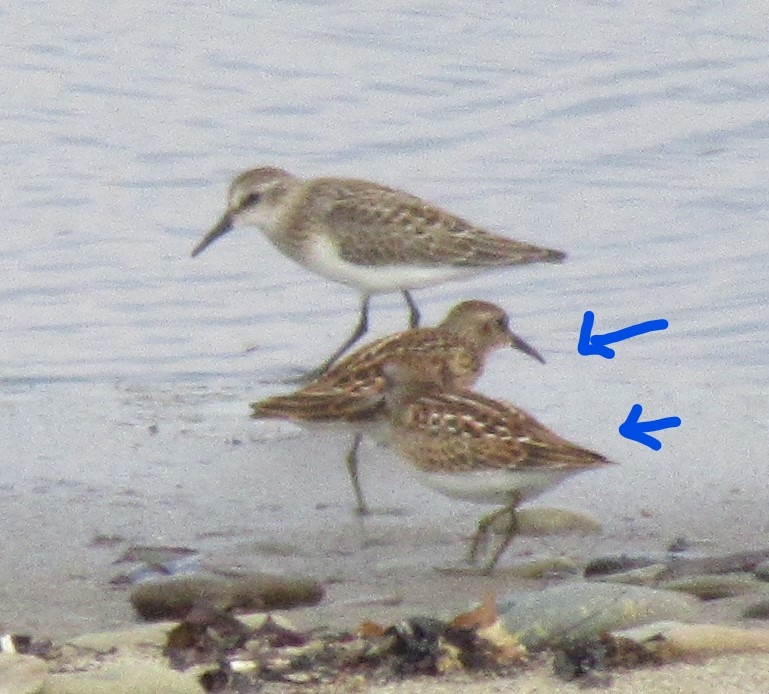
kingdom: Animalia
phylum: Chordata
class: Aves
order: Charadriiformes
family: Scolopacidae
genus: Calidris
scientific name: Calidris minutilla
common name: Least sandpiper
